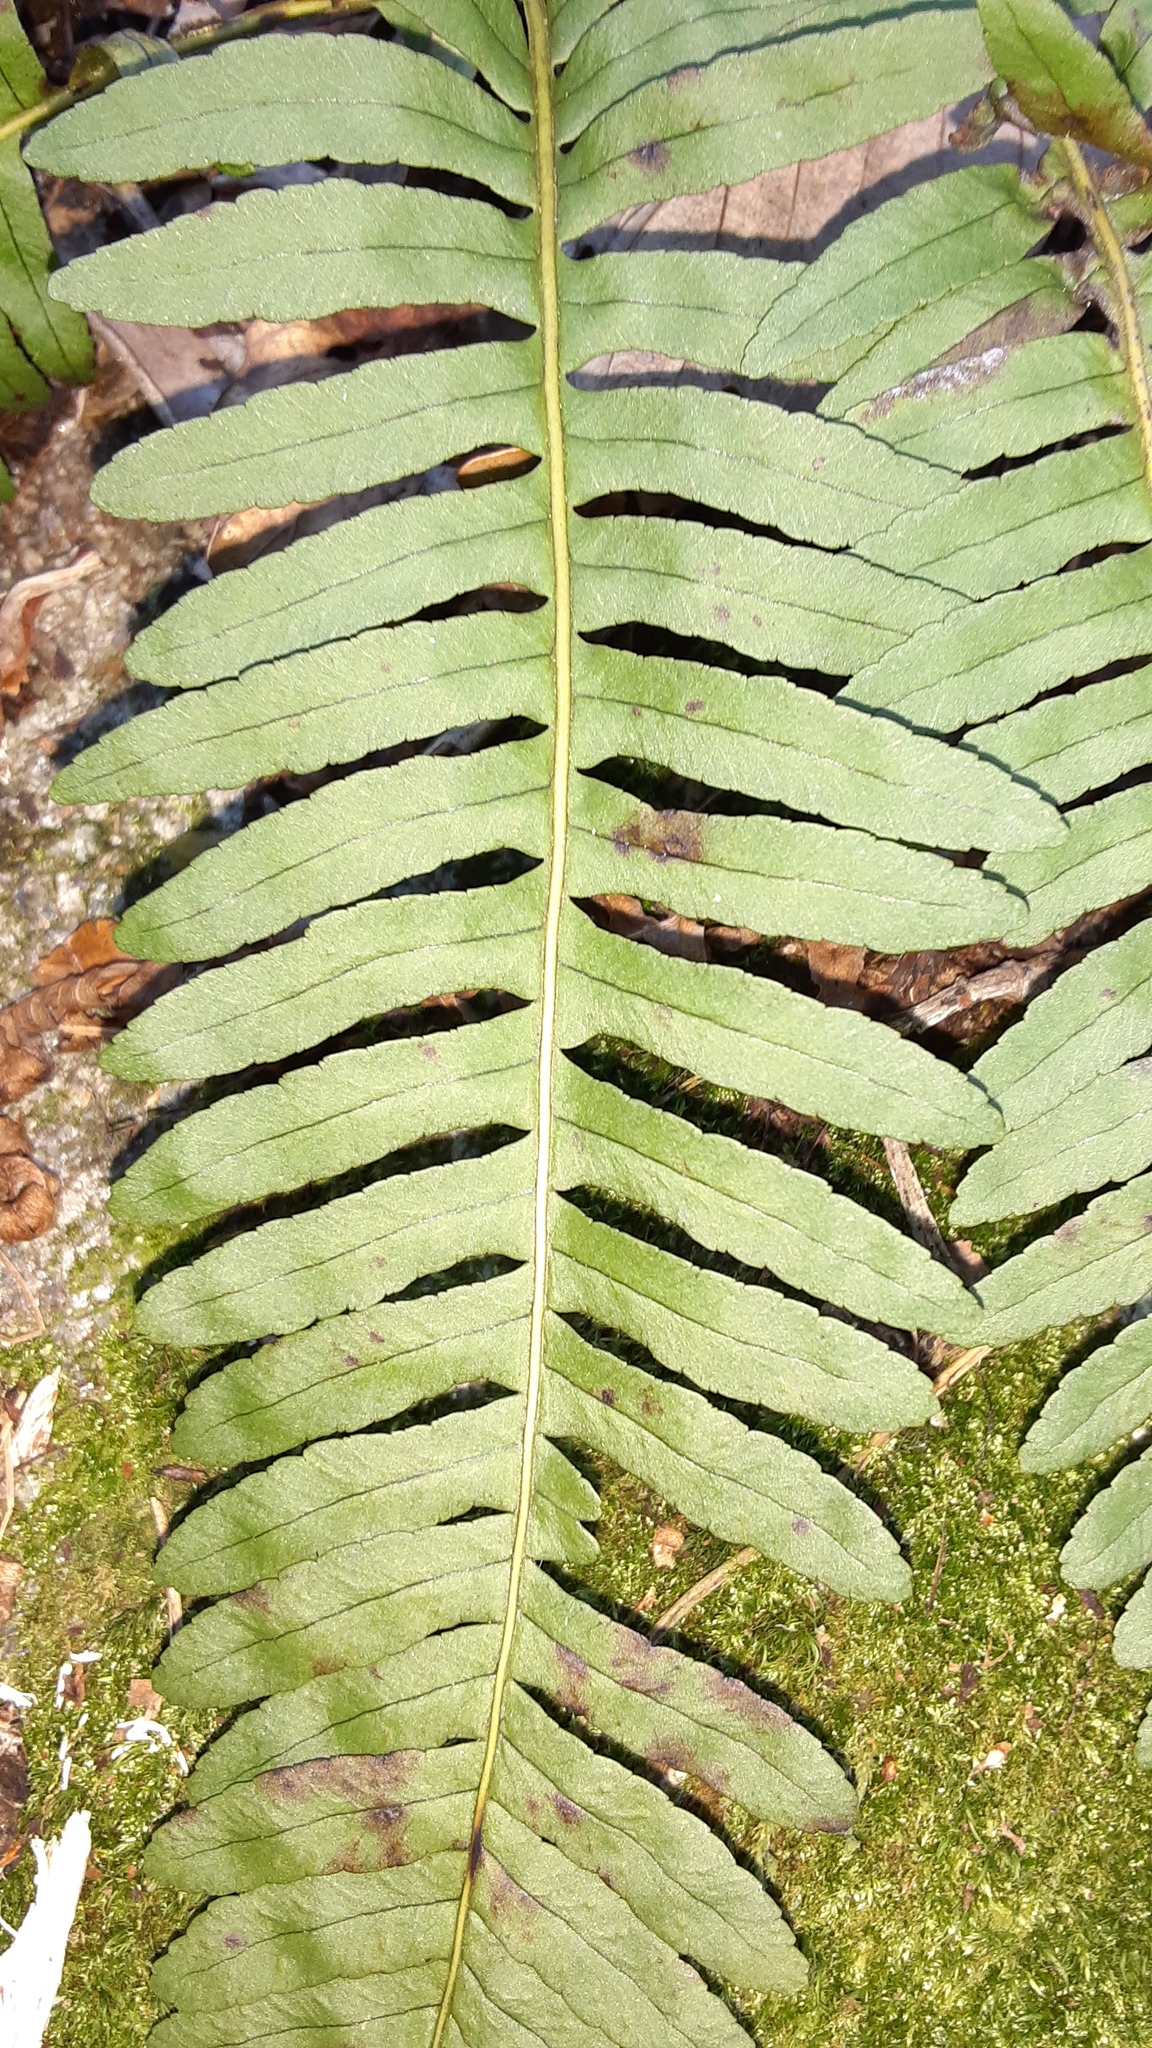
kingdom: Plantae
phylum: Tracheophyta
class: Polypodiopsida
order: Polypodiales
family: Polypodiaceae
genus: Polypodium
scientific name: Polypodium appalachianum
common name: Appalachian polypody
